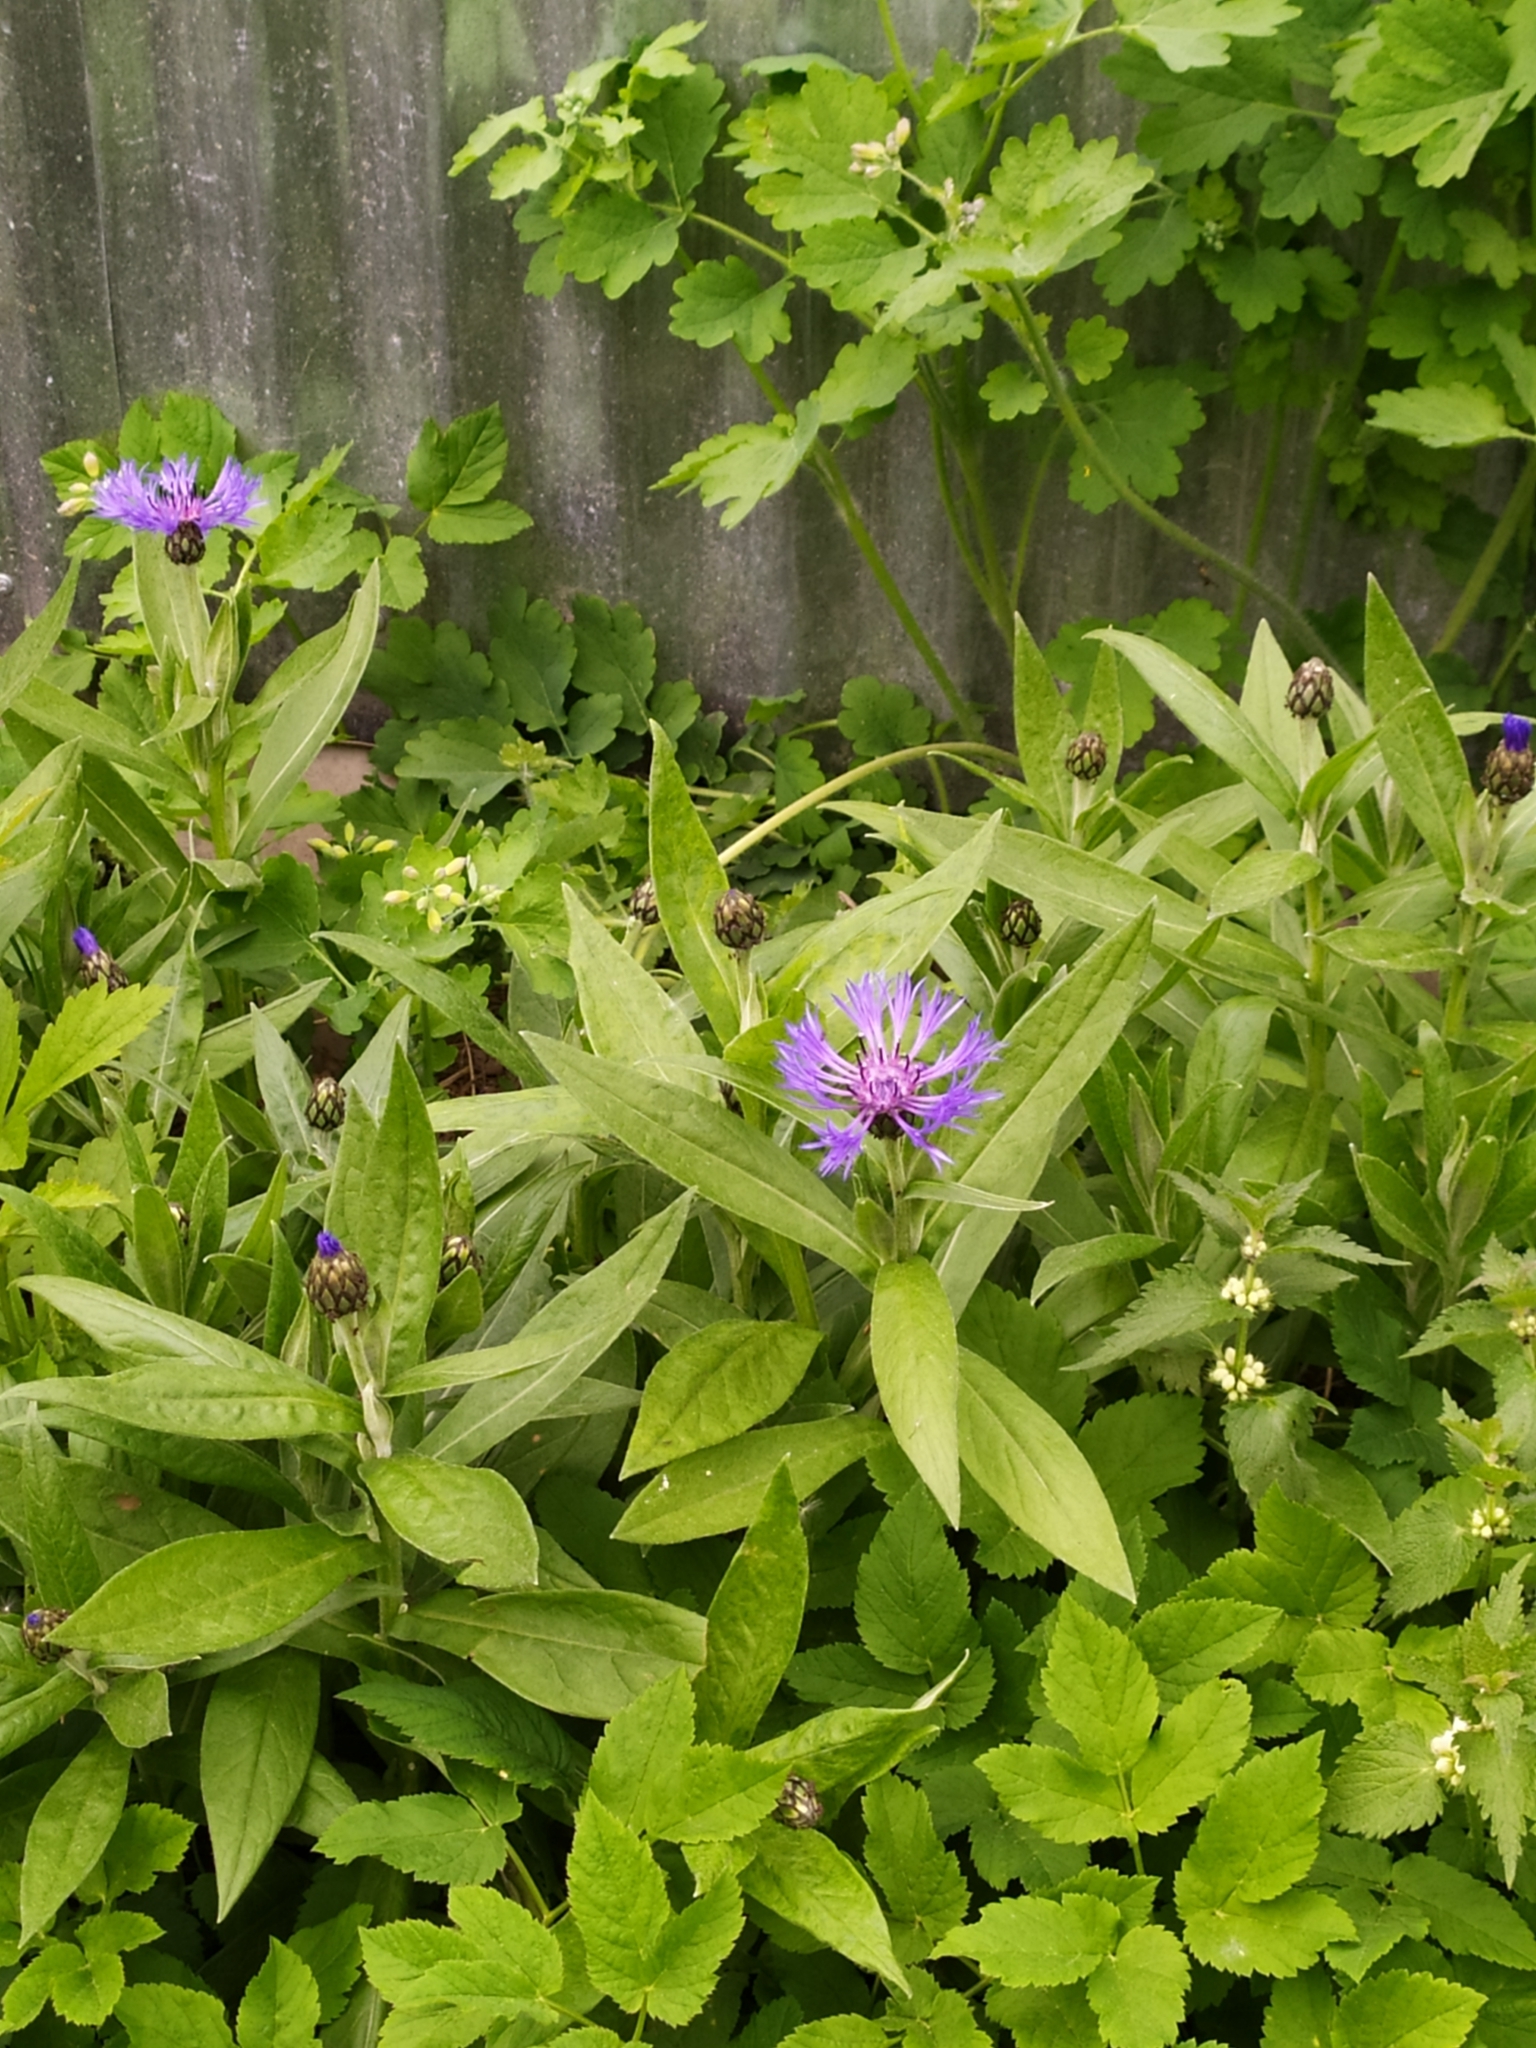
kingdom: Plantae
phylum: Tracheophyta
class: Magnoliopsida
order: Asterales
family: Asteraceae
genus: Centaurea
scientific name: Centaurea montana
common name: Perennial cornflower
